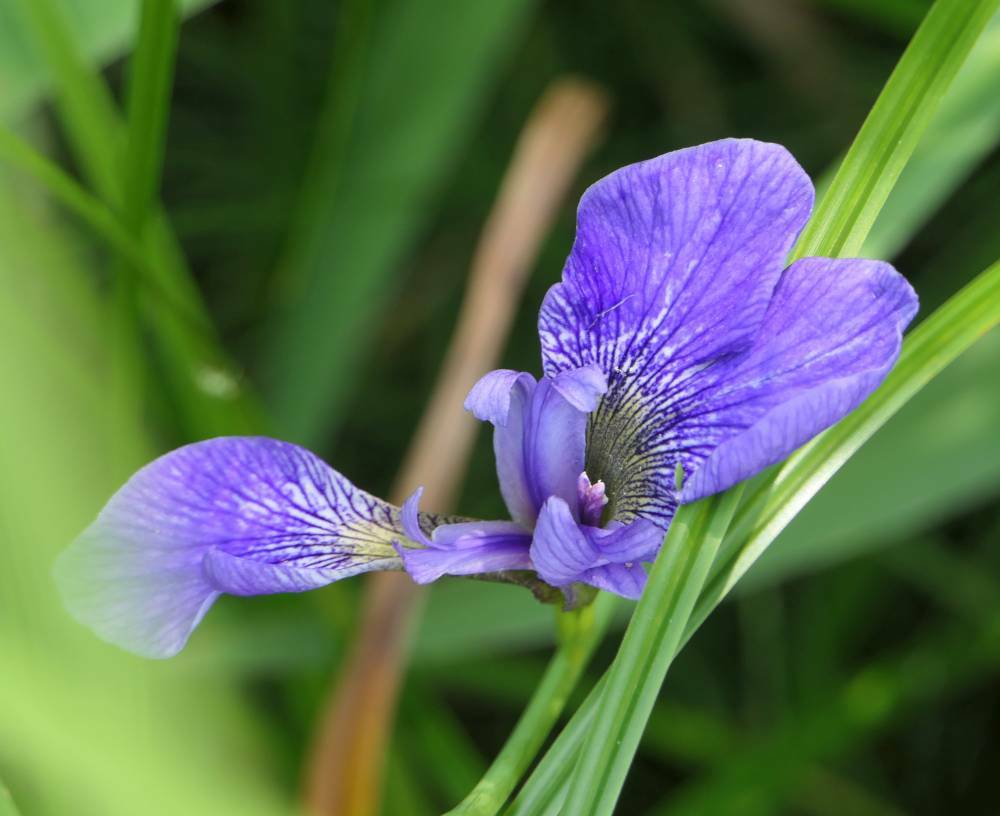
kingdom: Plantae
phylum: Tracheophyta
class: Liliopsida
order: Asparagales
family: Iridaceae
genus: Iris
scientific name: Iris versicolor
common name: Purple iris
